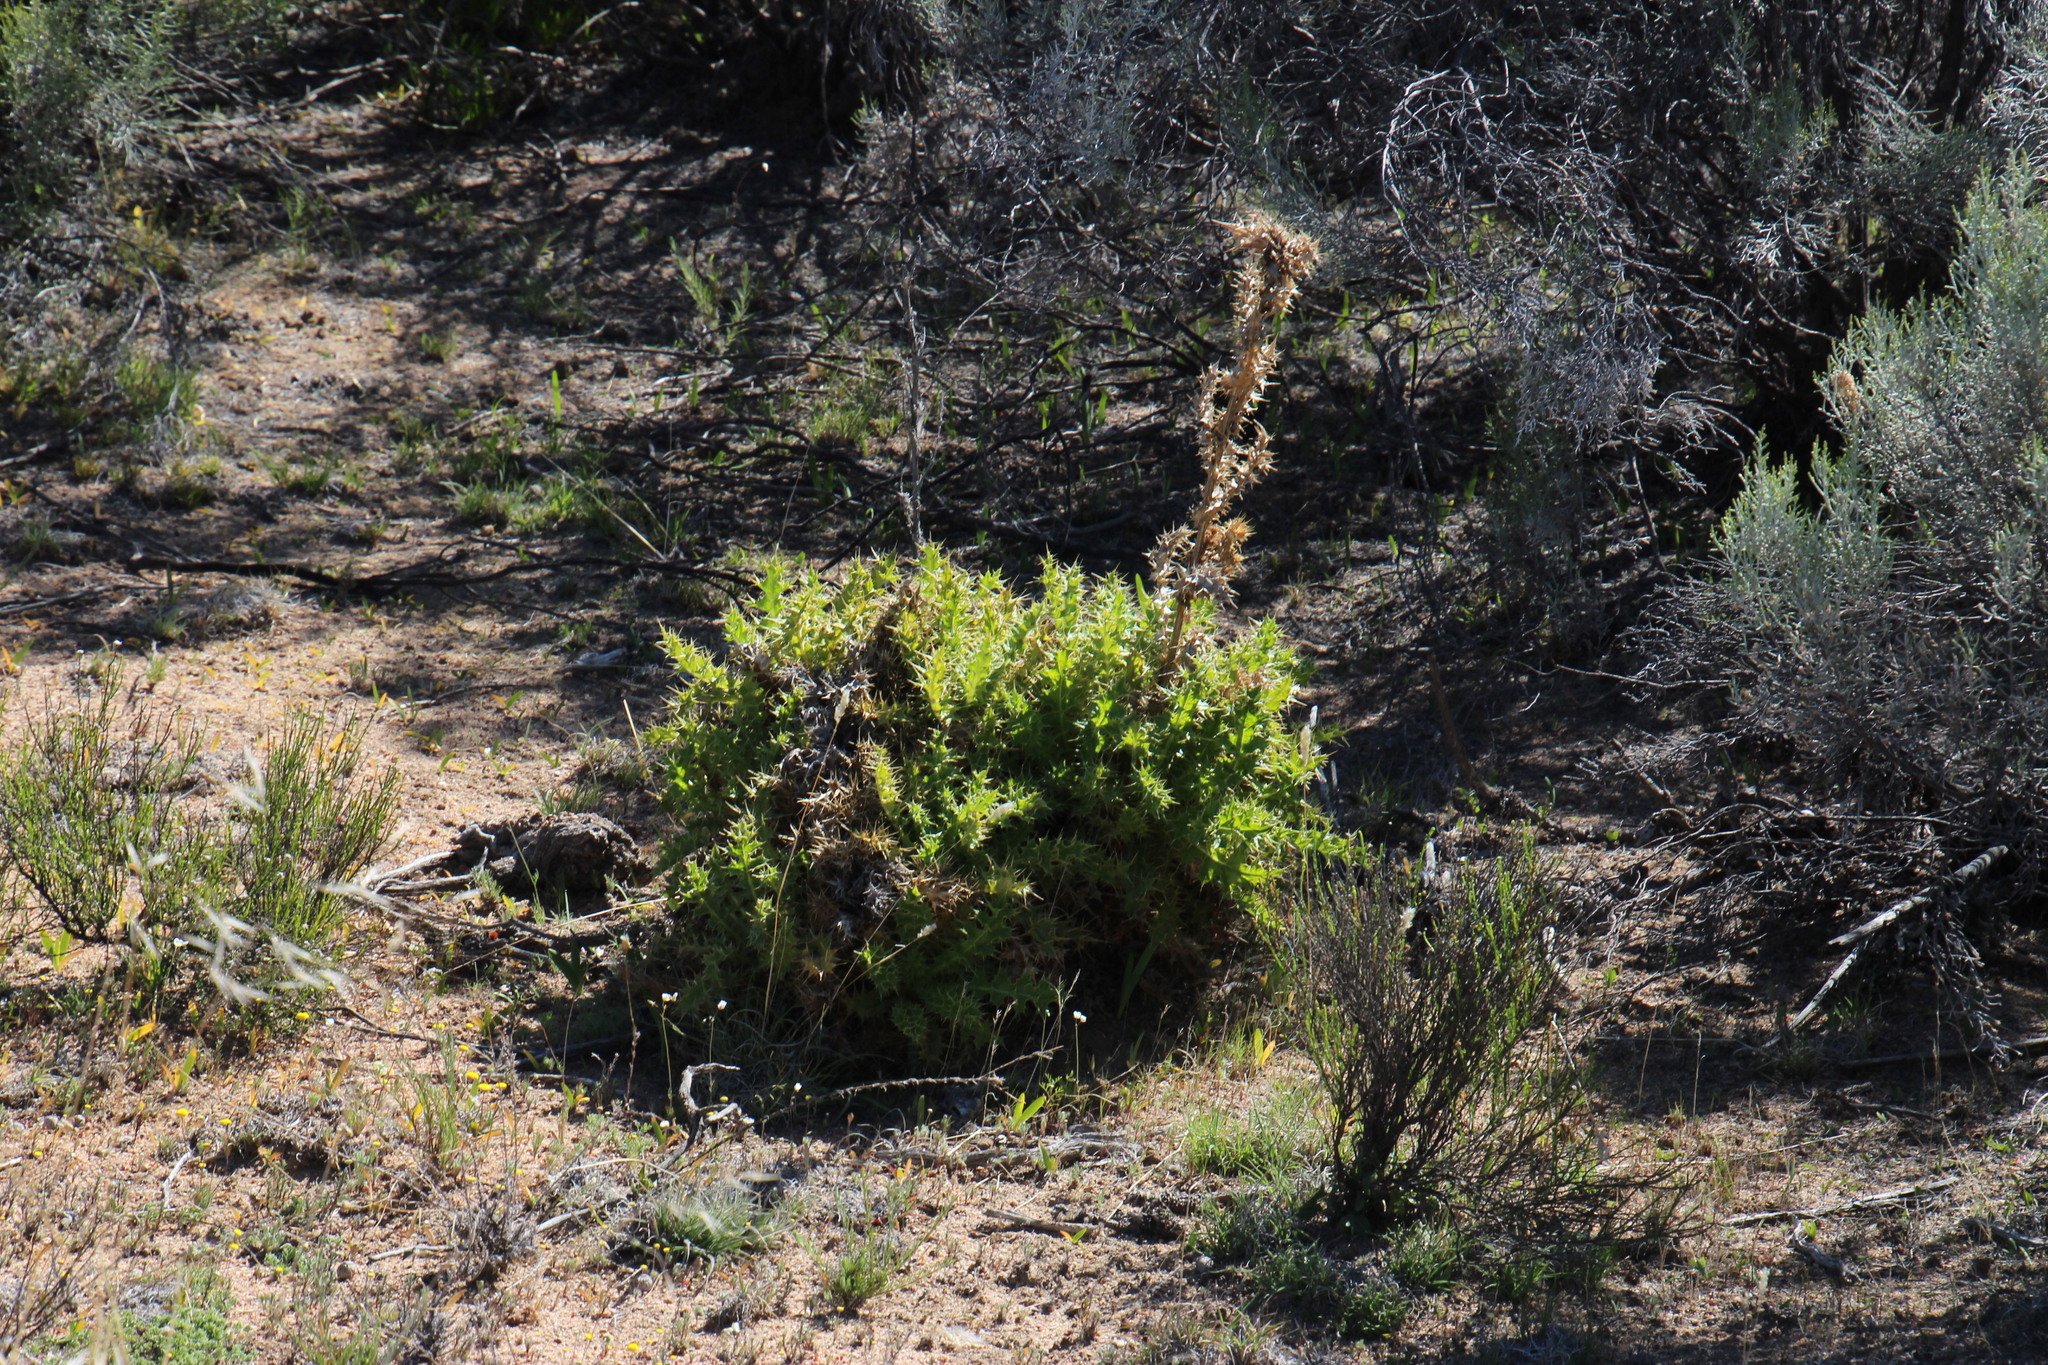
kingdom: Plantae
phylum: Tracheophyta
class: Magnoliopsida
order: Asterales
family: Asteraceae
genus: Berkheya
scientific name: Berkheya onobromoides
